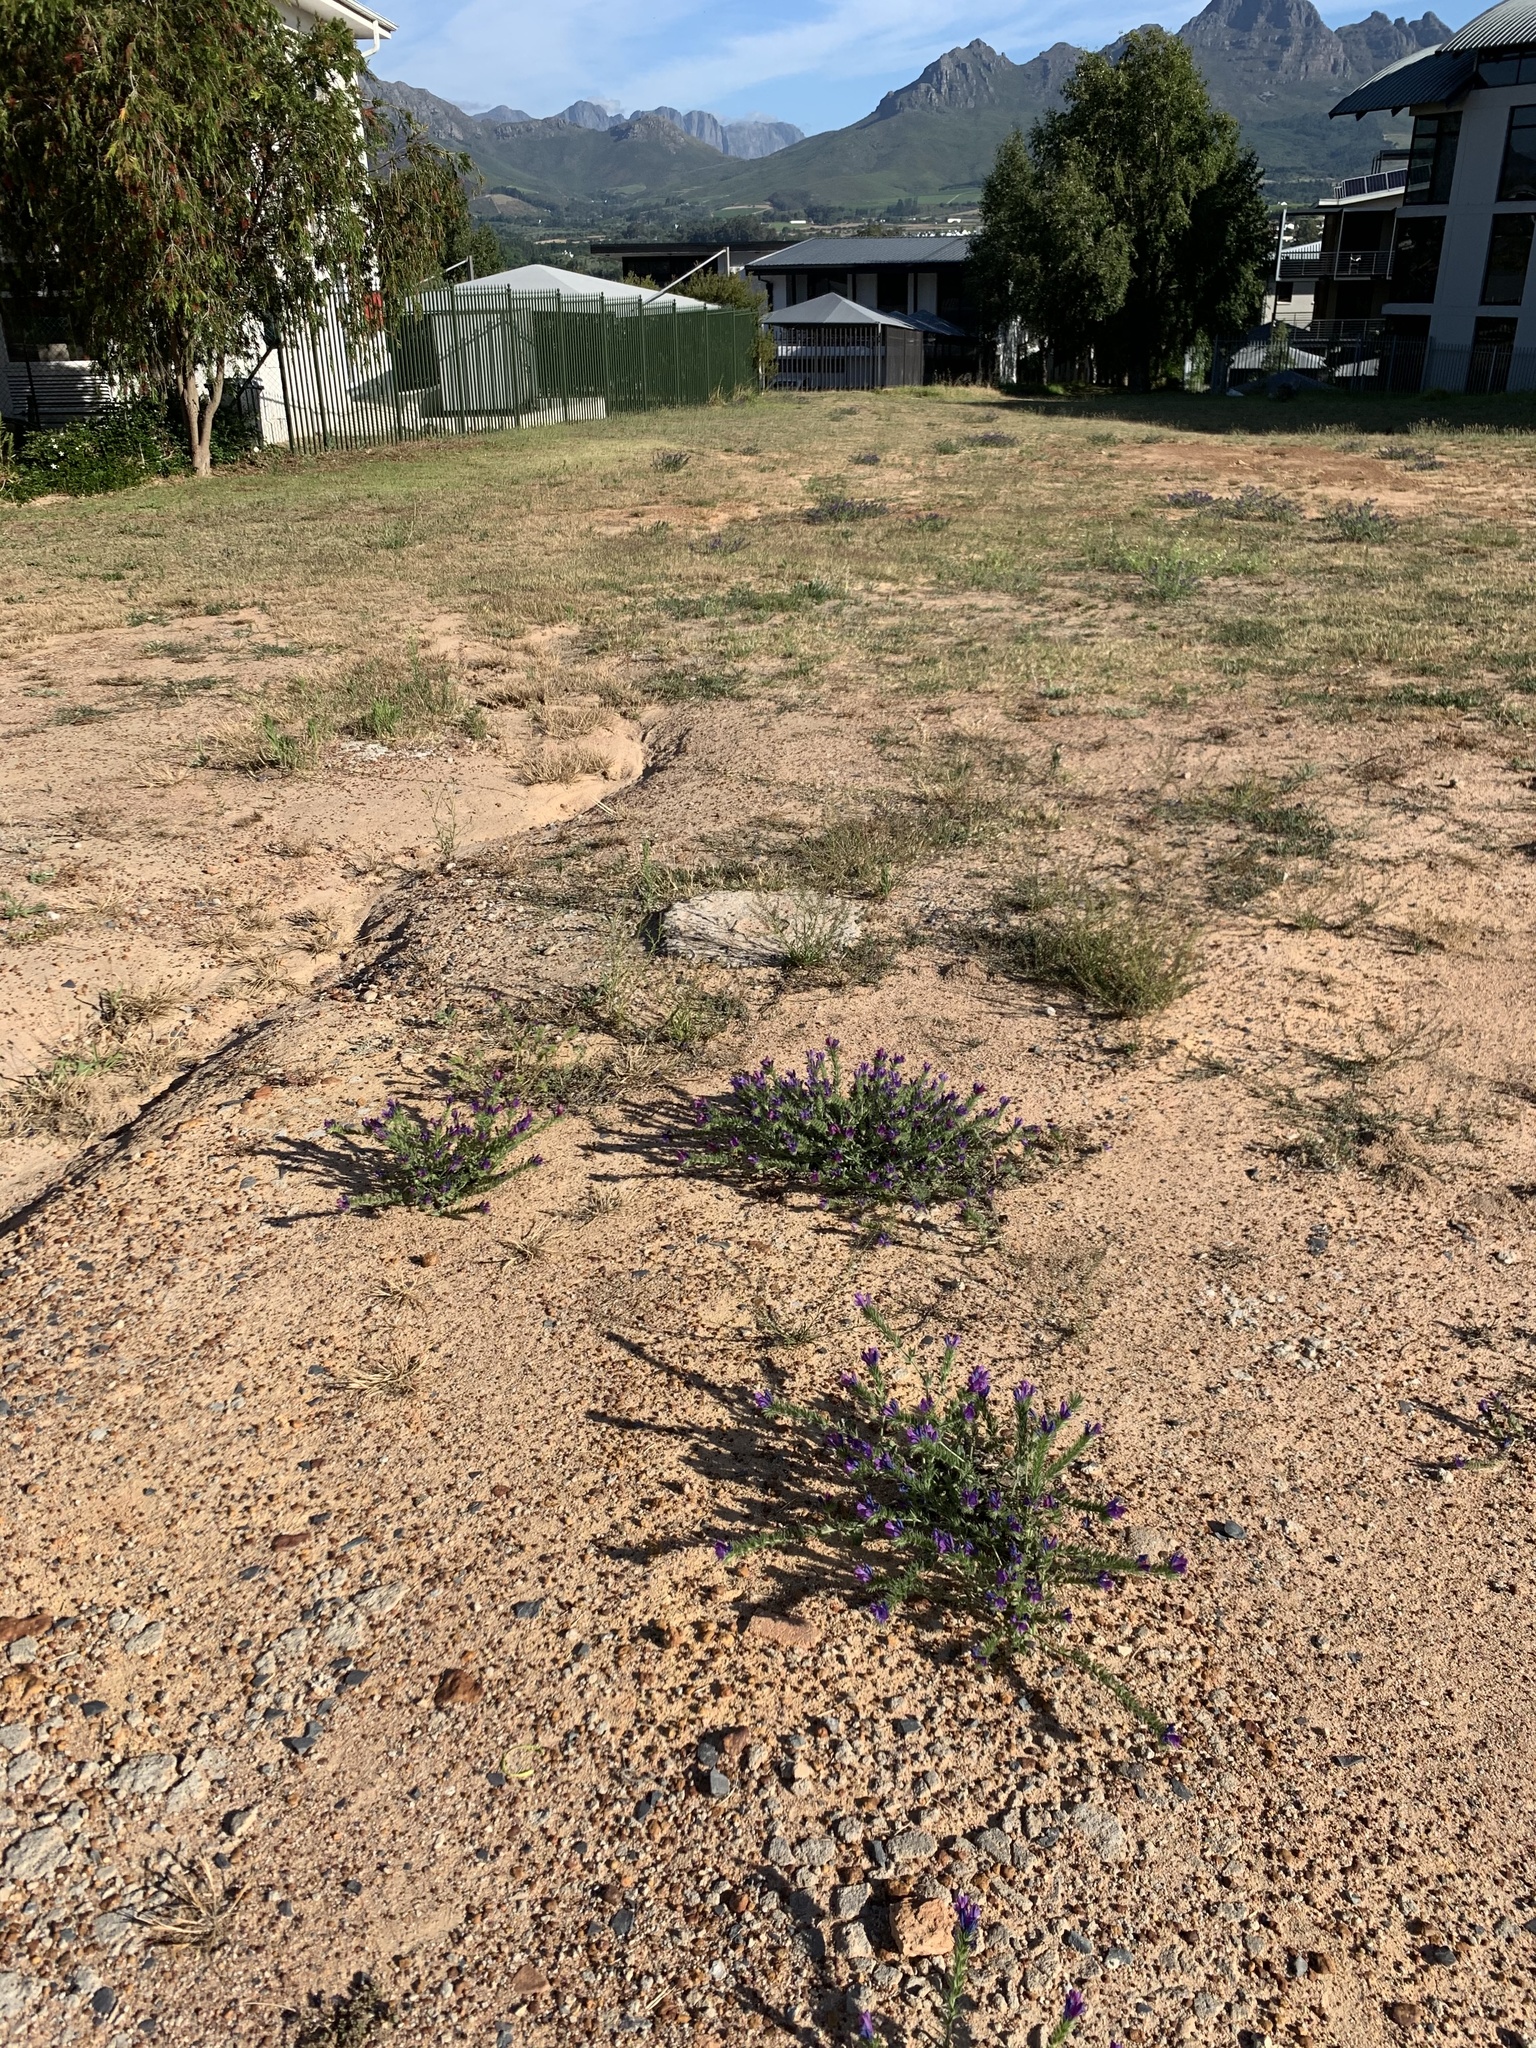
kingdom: Plantae
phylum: Tracheophyta
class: Magnoliopsida
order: Boraginales
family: Boraginaceae
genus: Echium
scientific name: Echium plantagineum
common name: Purple viper's-bugloss
